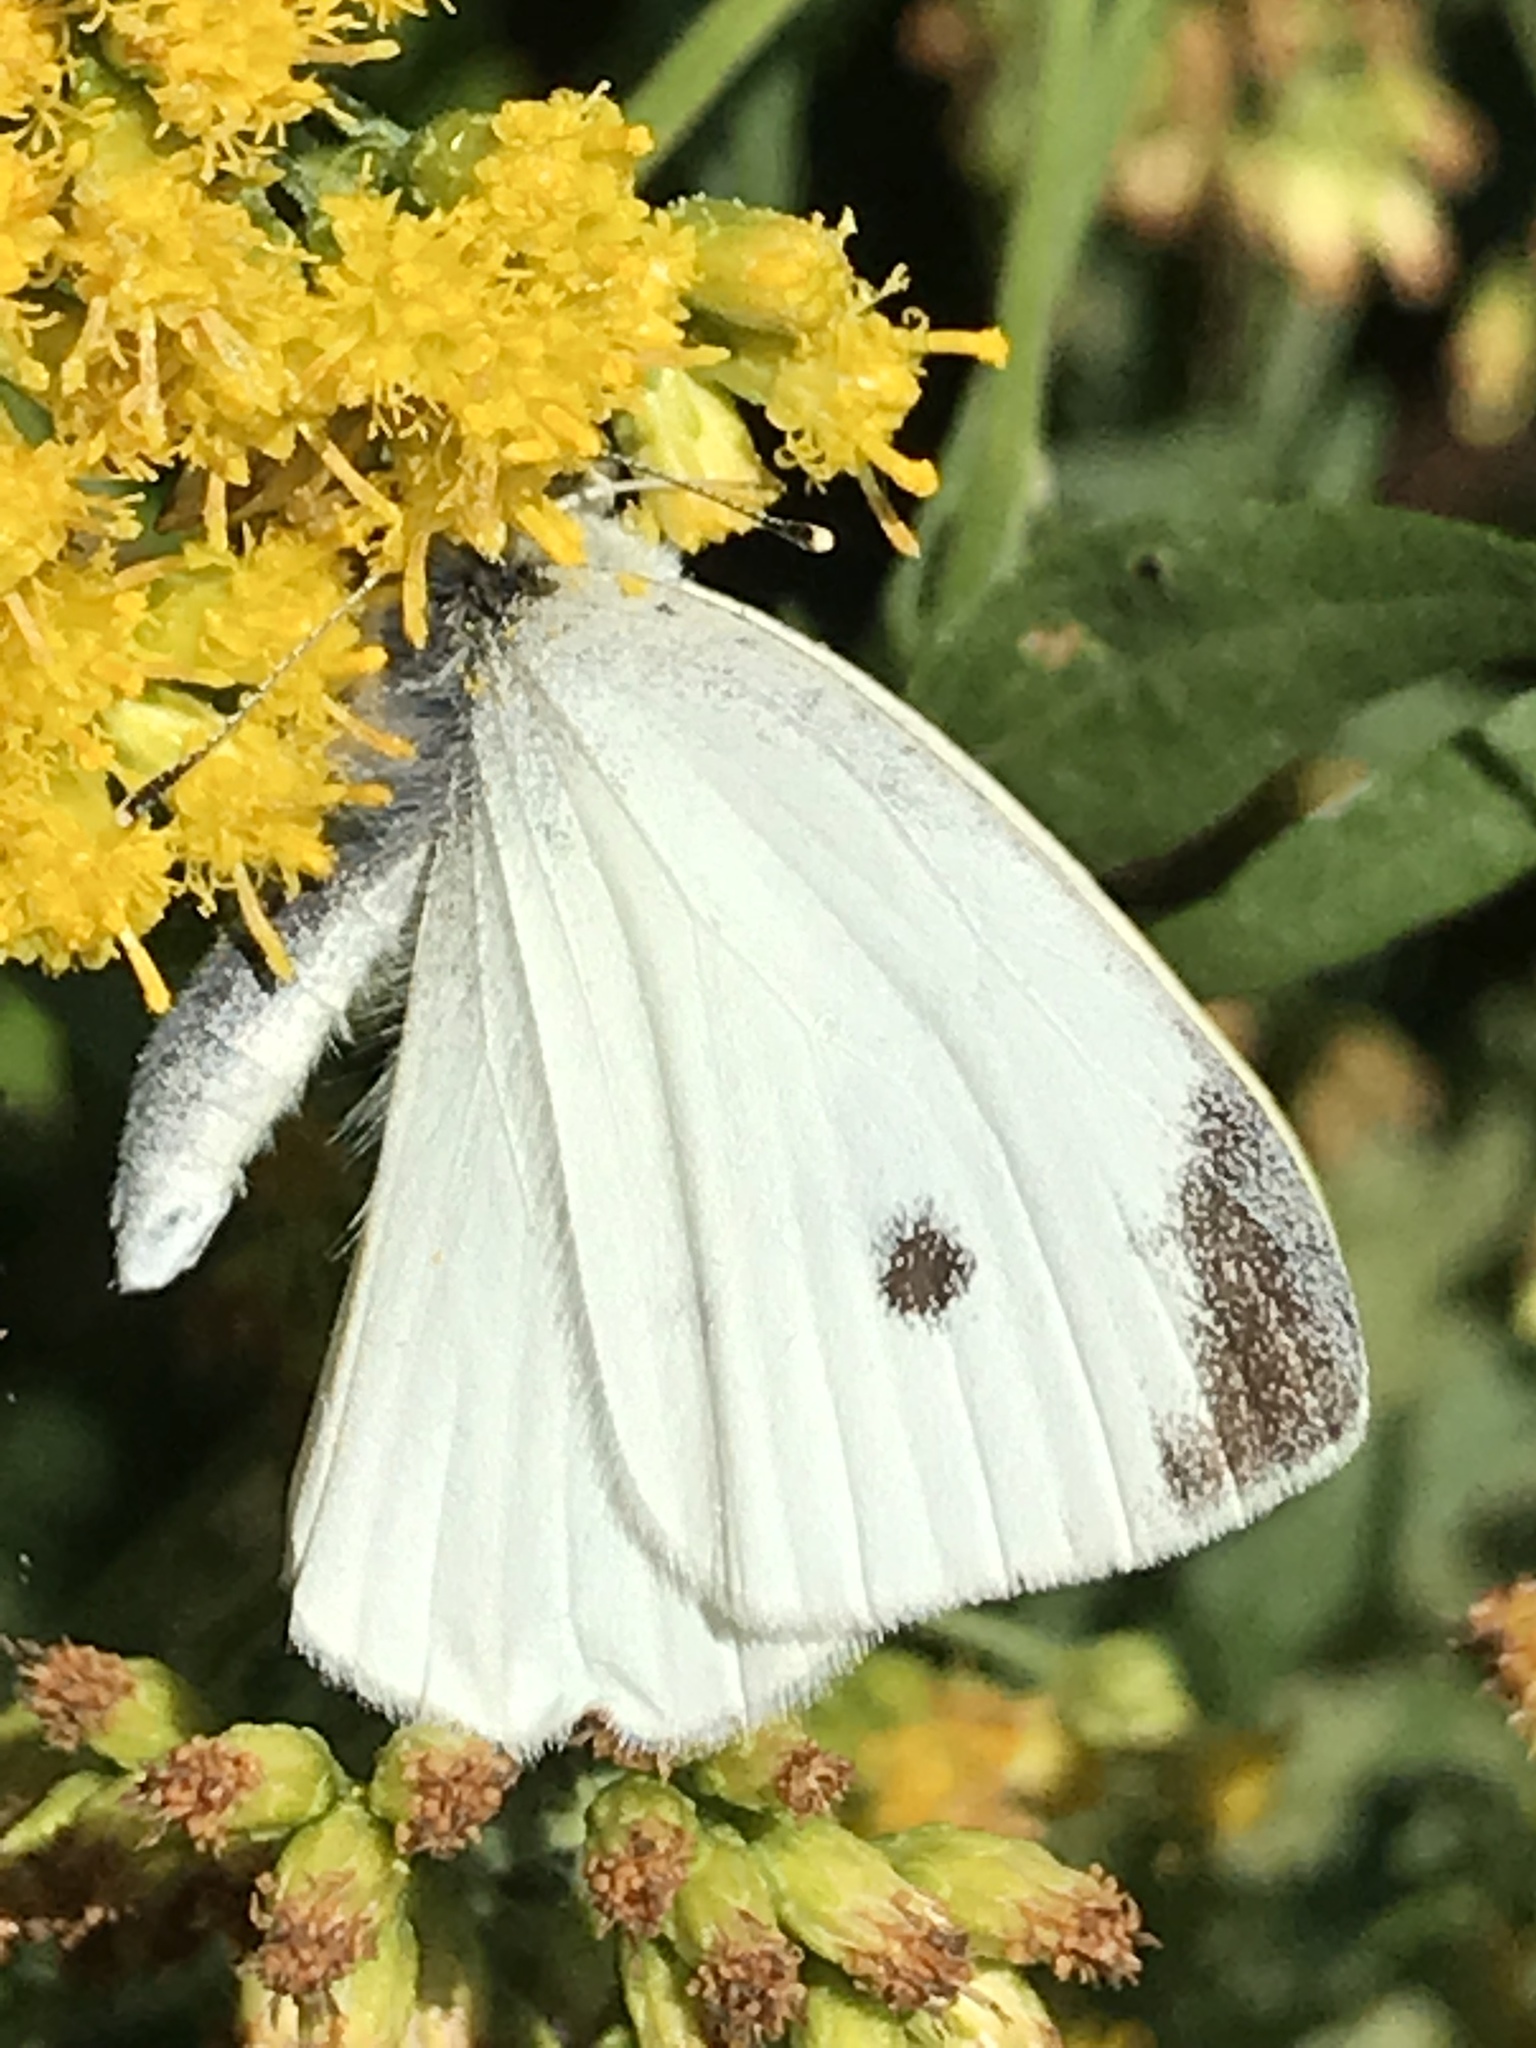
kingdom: Animalia
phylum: Arthropoda
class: Insecta
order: Lepidoptera
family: Pieridae
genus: Pieris
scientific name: Pieris rapae
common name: Small white
